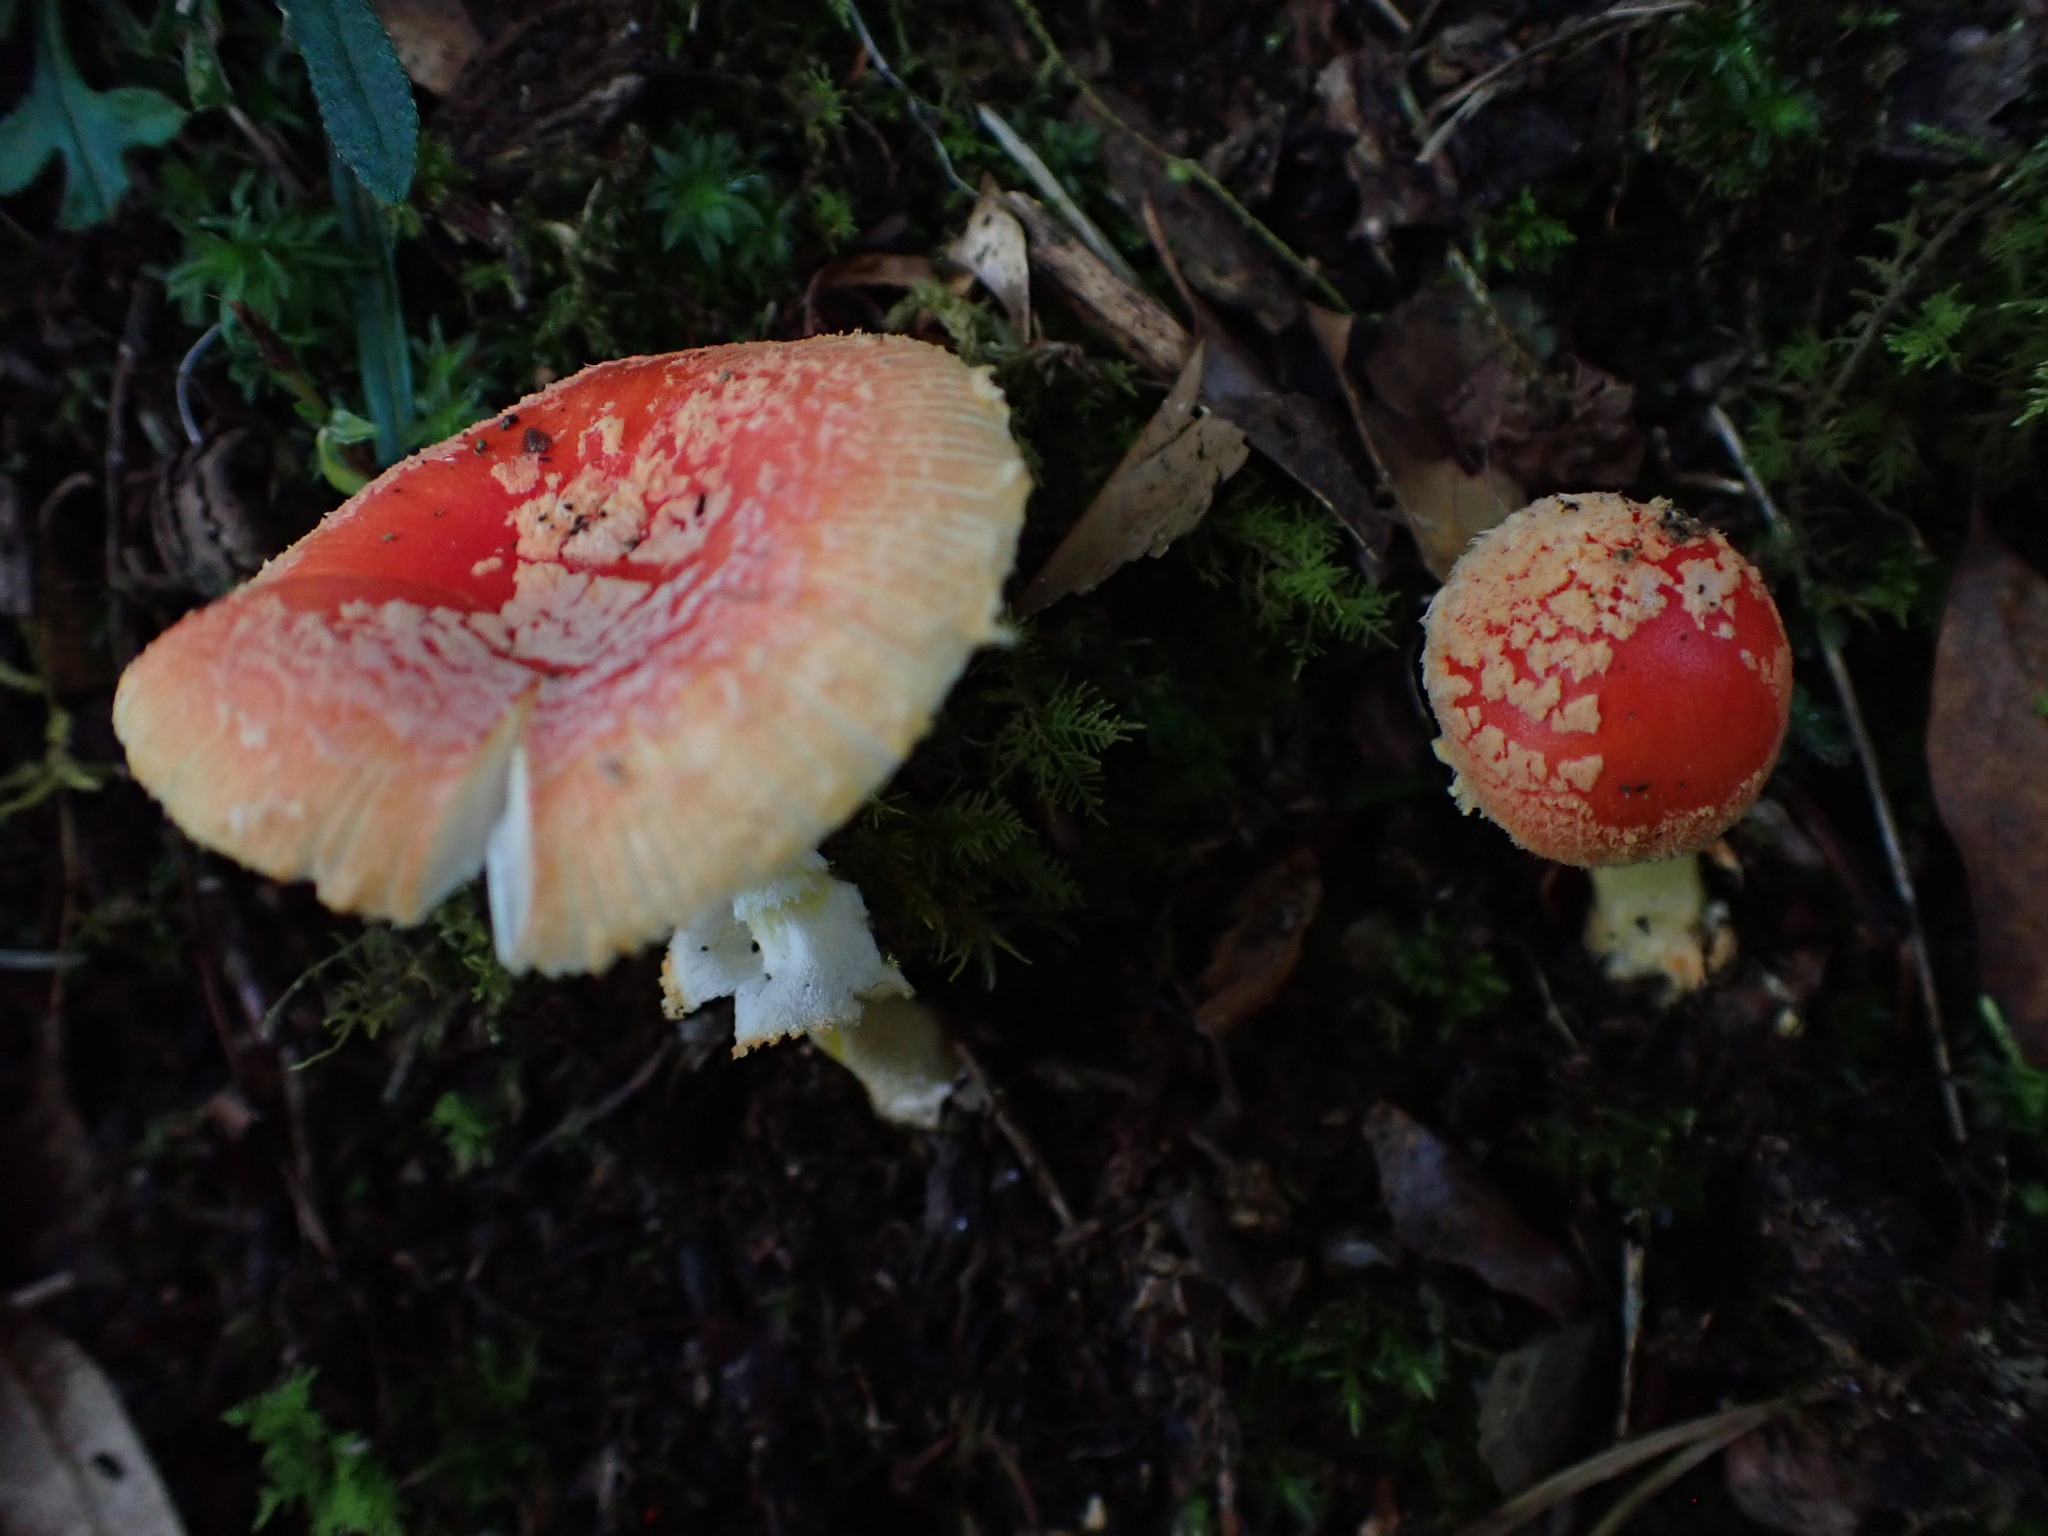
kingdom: Fungi
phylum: Basidiomycota
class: Agaricomycetes
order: Agaricales
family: Amanitaceae
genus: Amanita
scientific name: Amanita rubrovolvata
